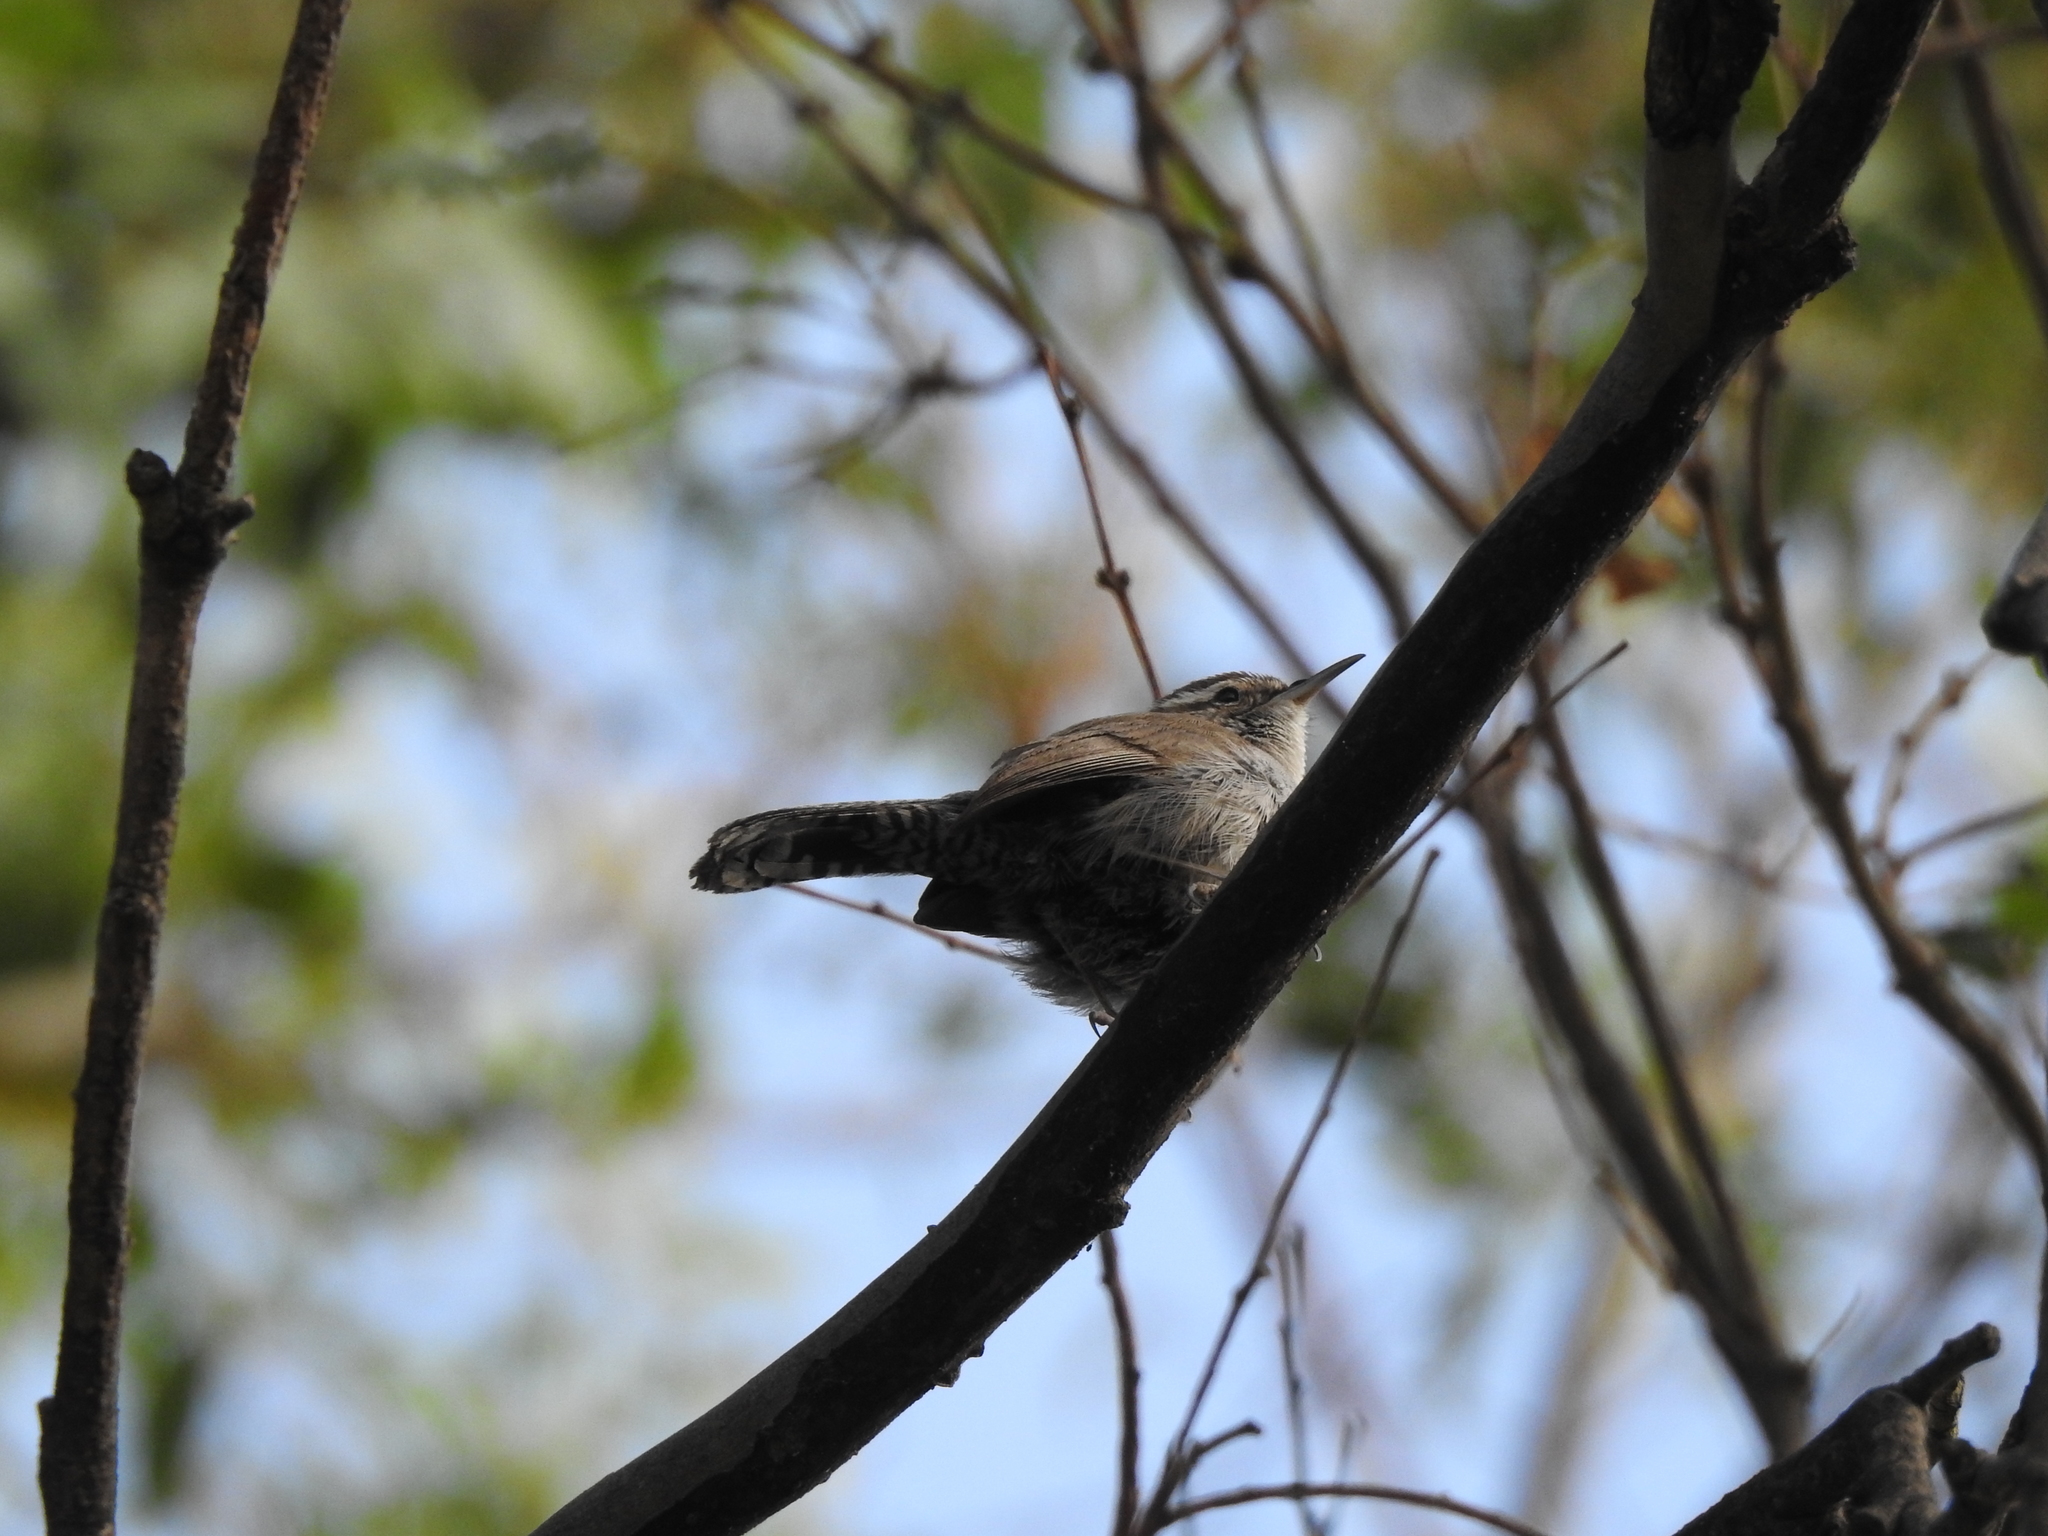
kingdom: Animalia
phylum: Chordata
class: Aves
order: Passeriformes
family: Troglodytidae
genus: Thryomanes
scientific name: Thryomanes bewickii
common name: Bewick's wren
